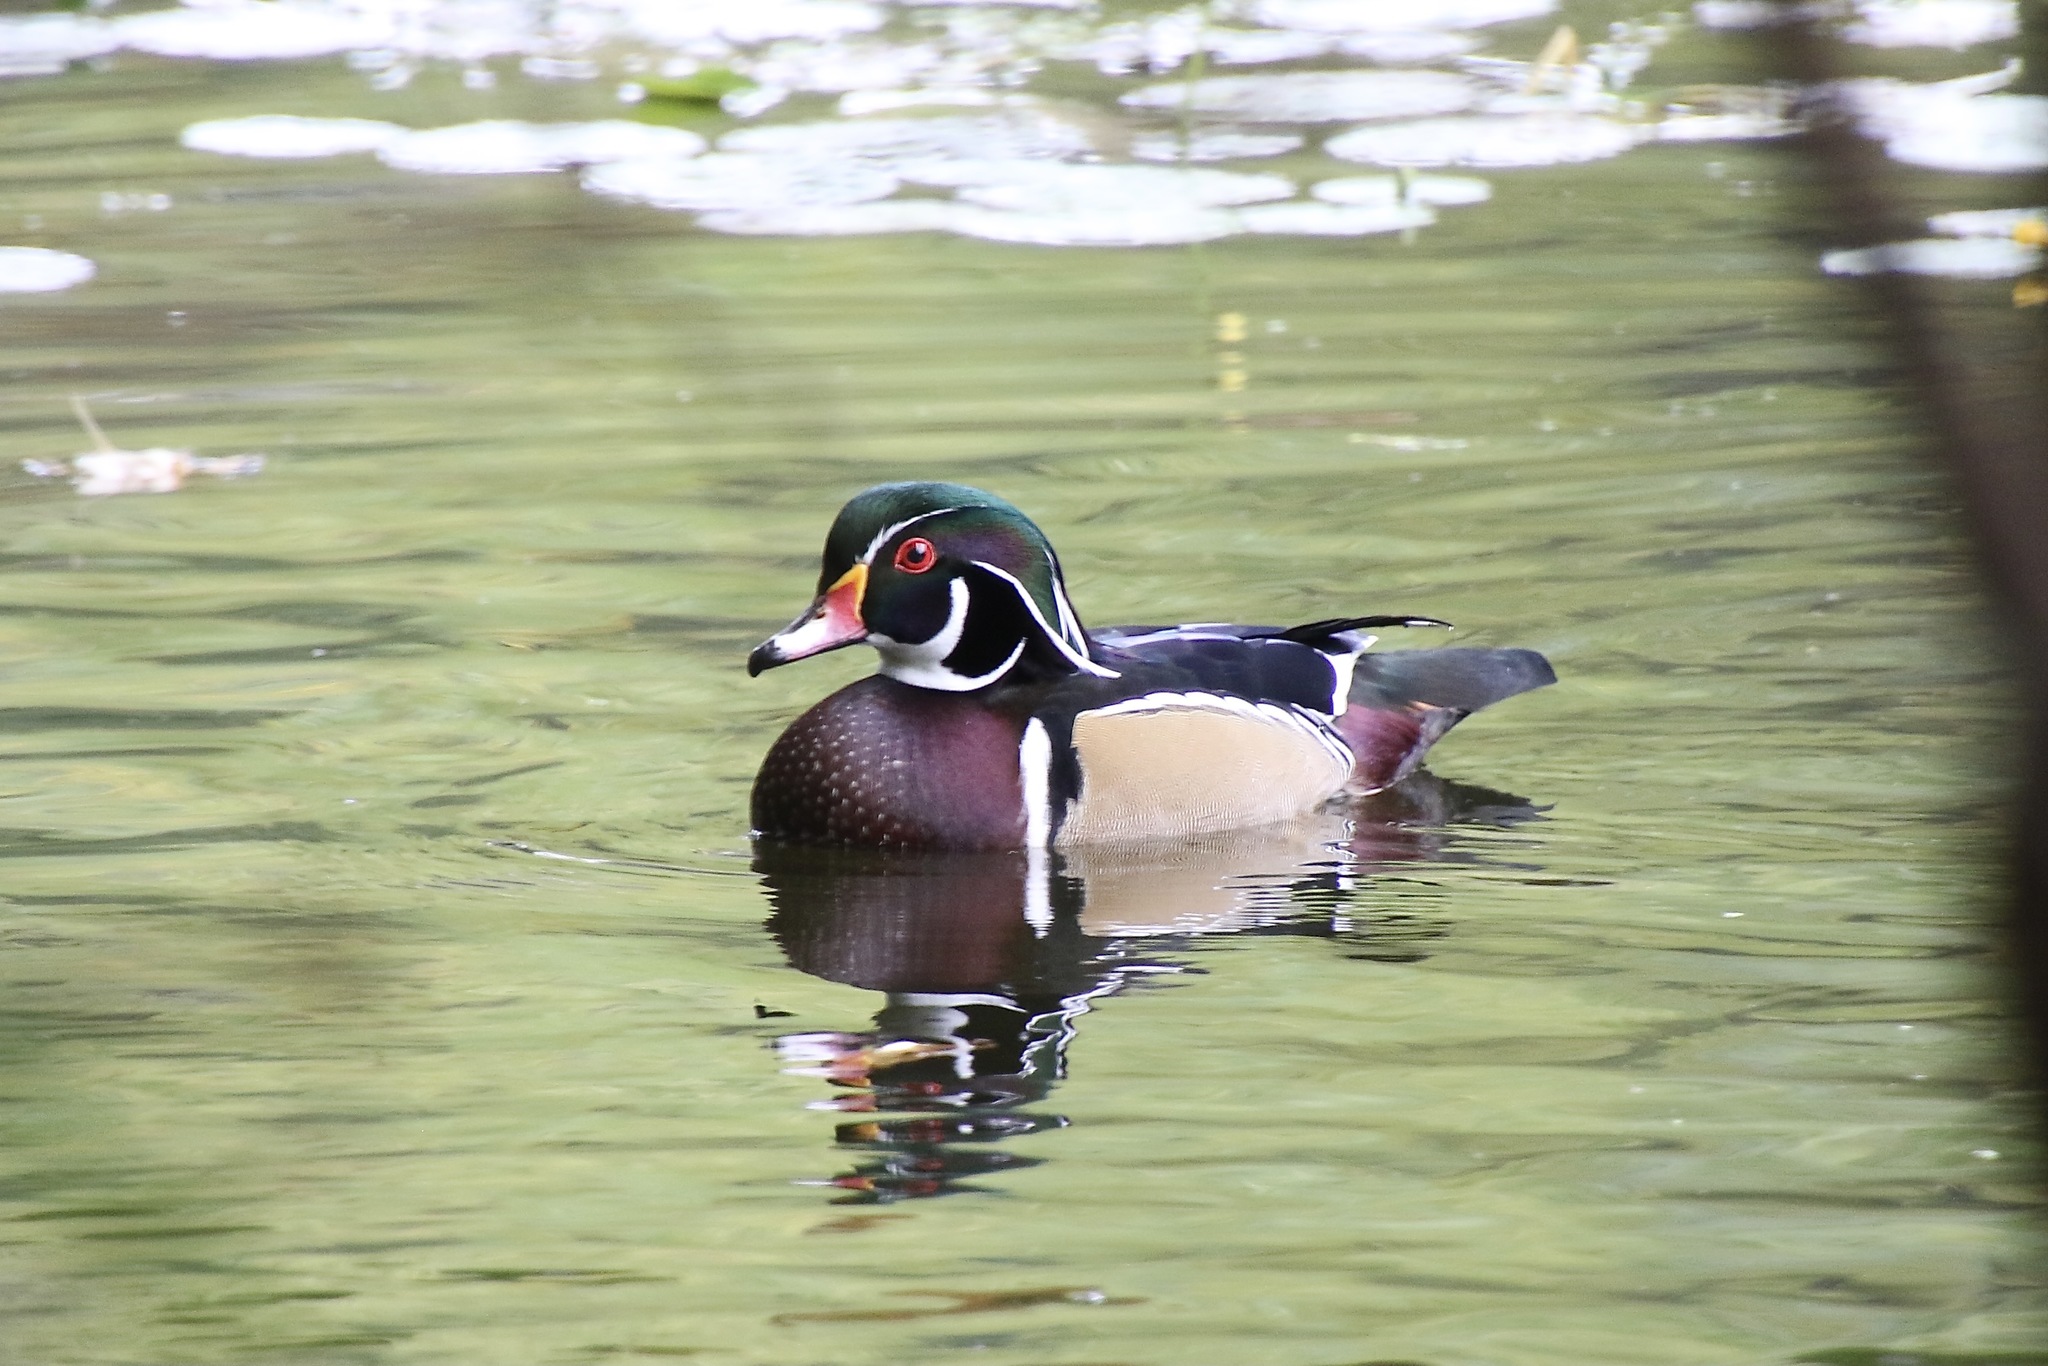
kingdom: Animalia
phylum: Chordata
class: Aves
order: Anseriformes
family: Anatidae
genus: Aix
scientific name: Aix sponsa
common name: Wood duck
